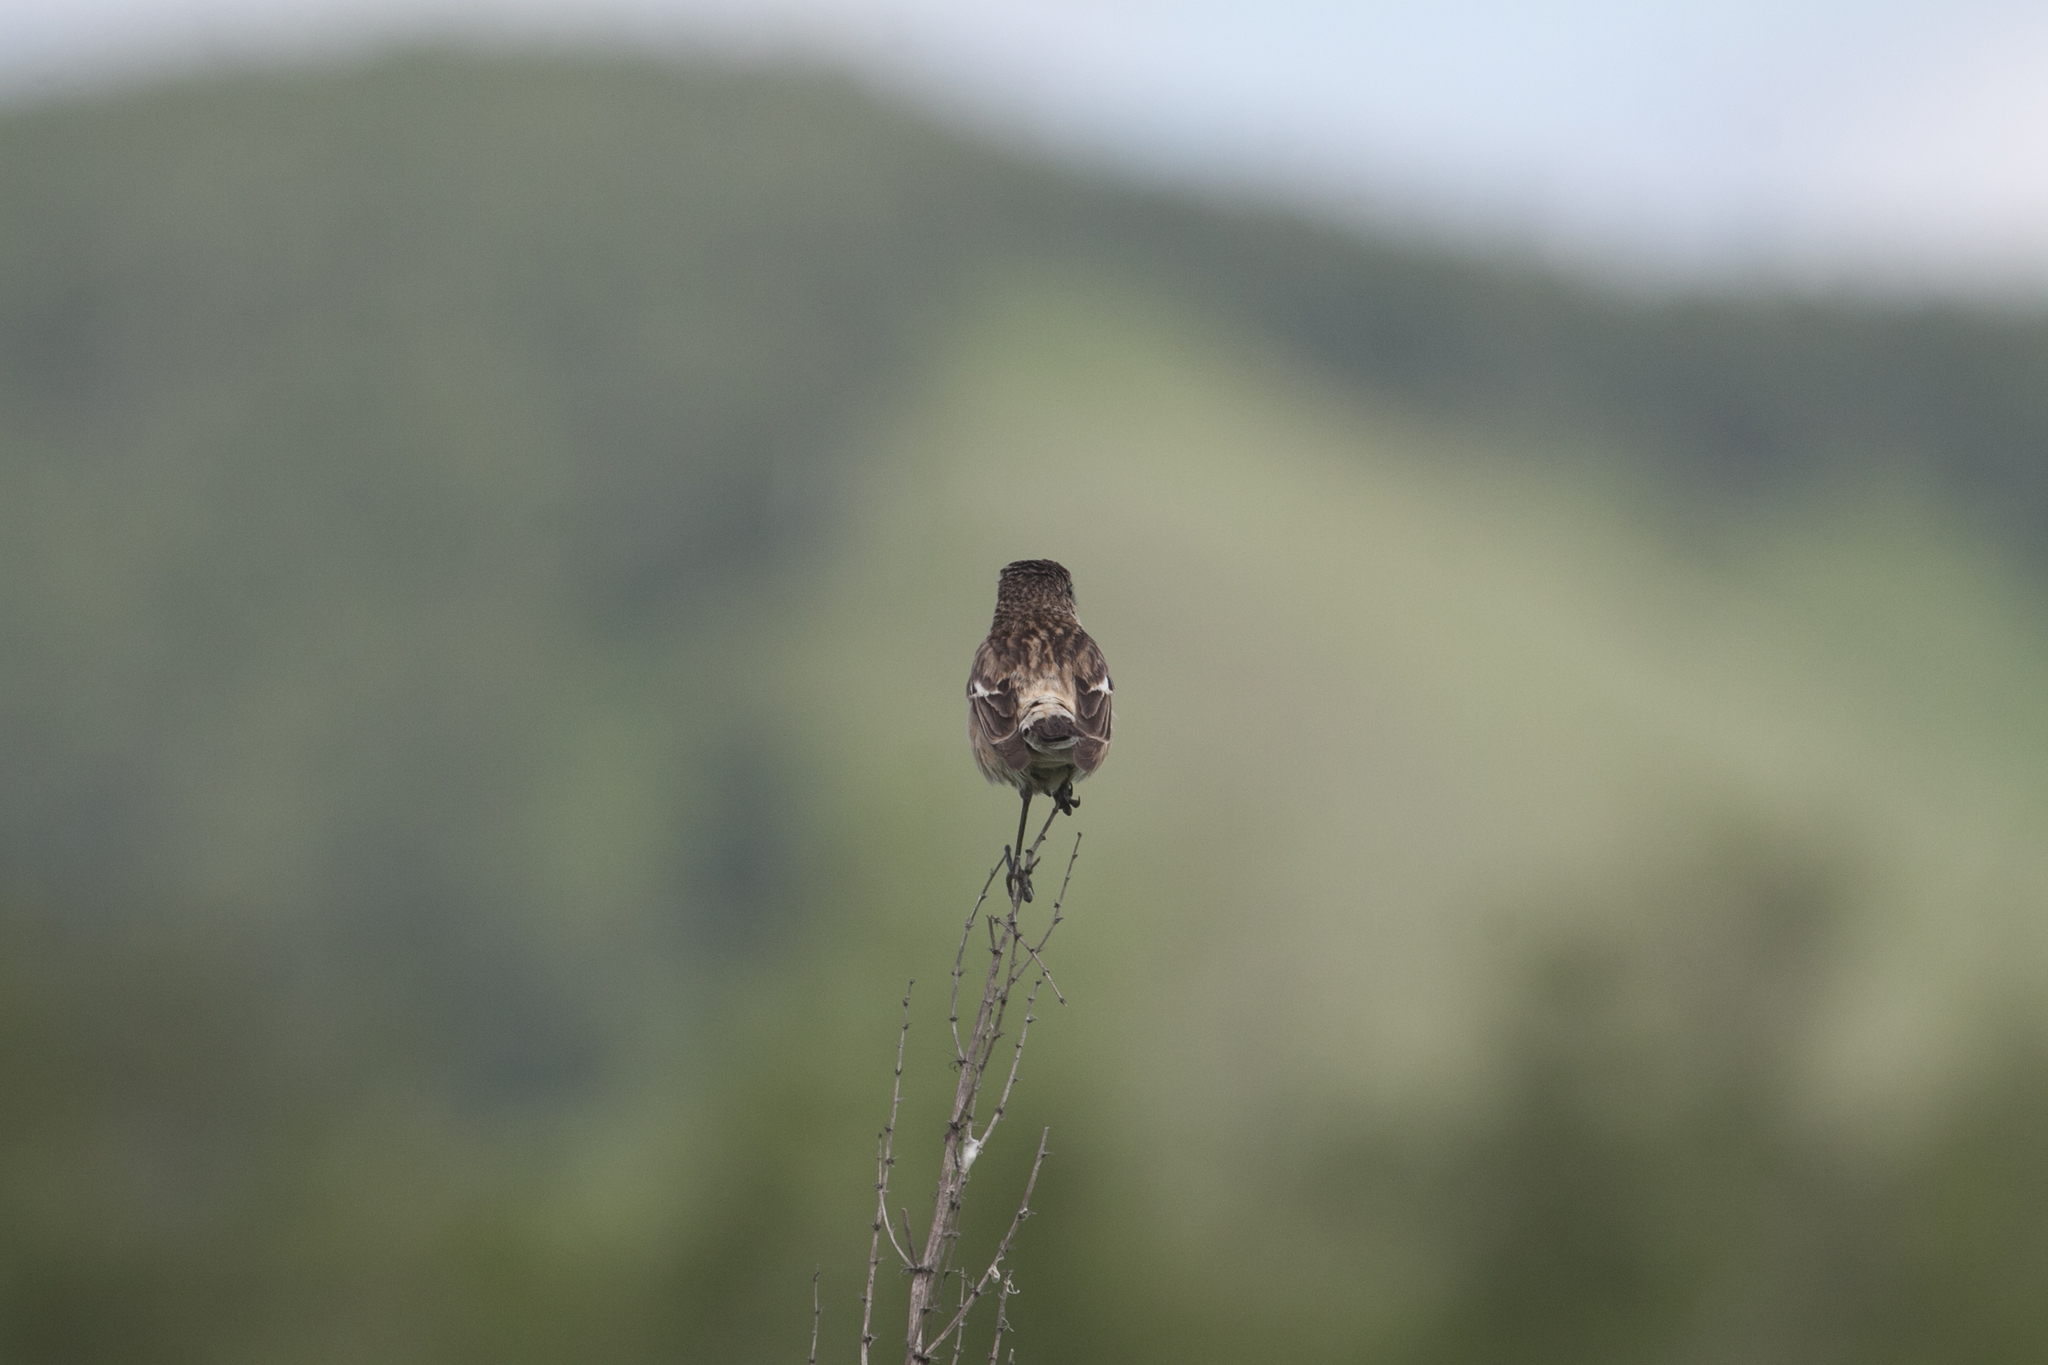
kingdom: Animalia
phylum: Chordata
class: Aves
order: Passeriformes
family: Muscicapidae
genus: Saxicola
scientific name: Saxicola maurus
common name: Siberian stonechat
